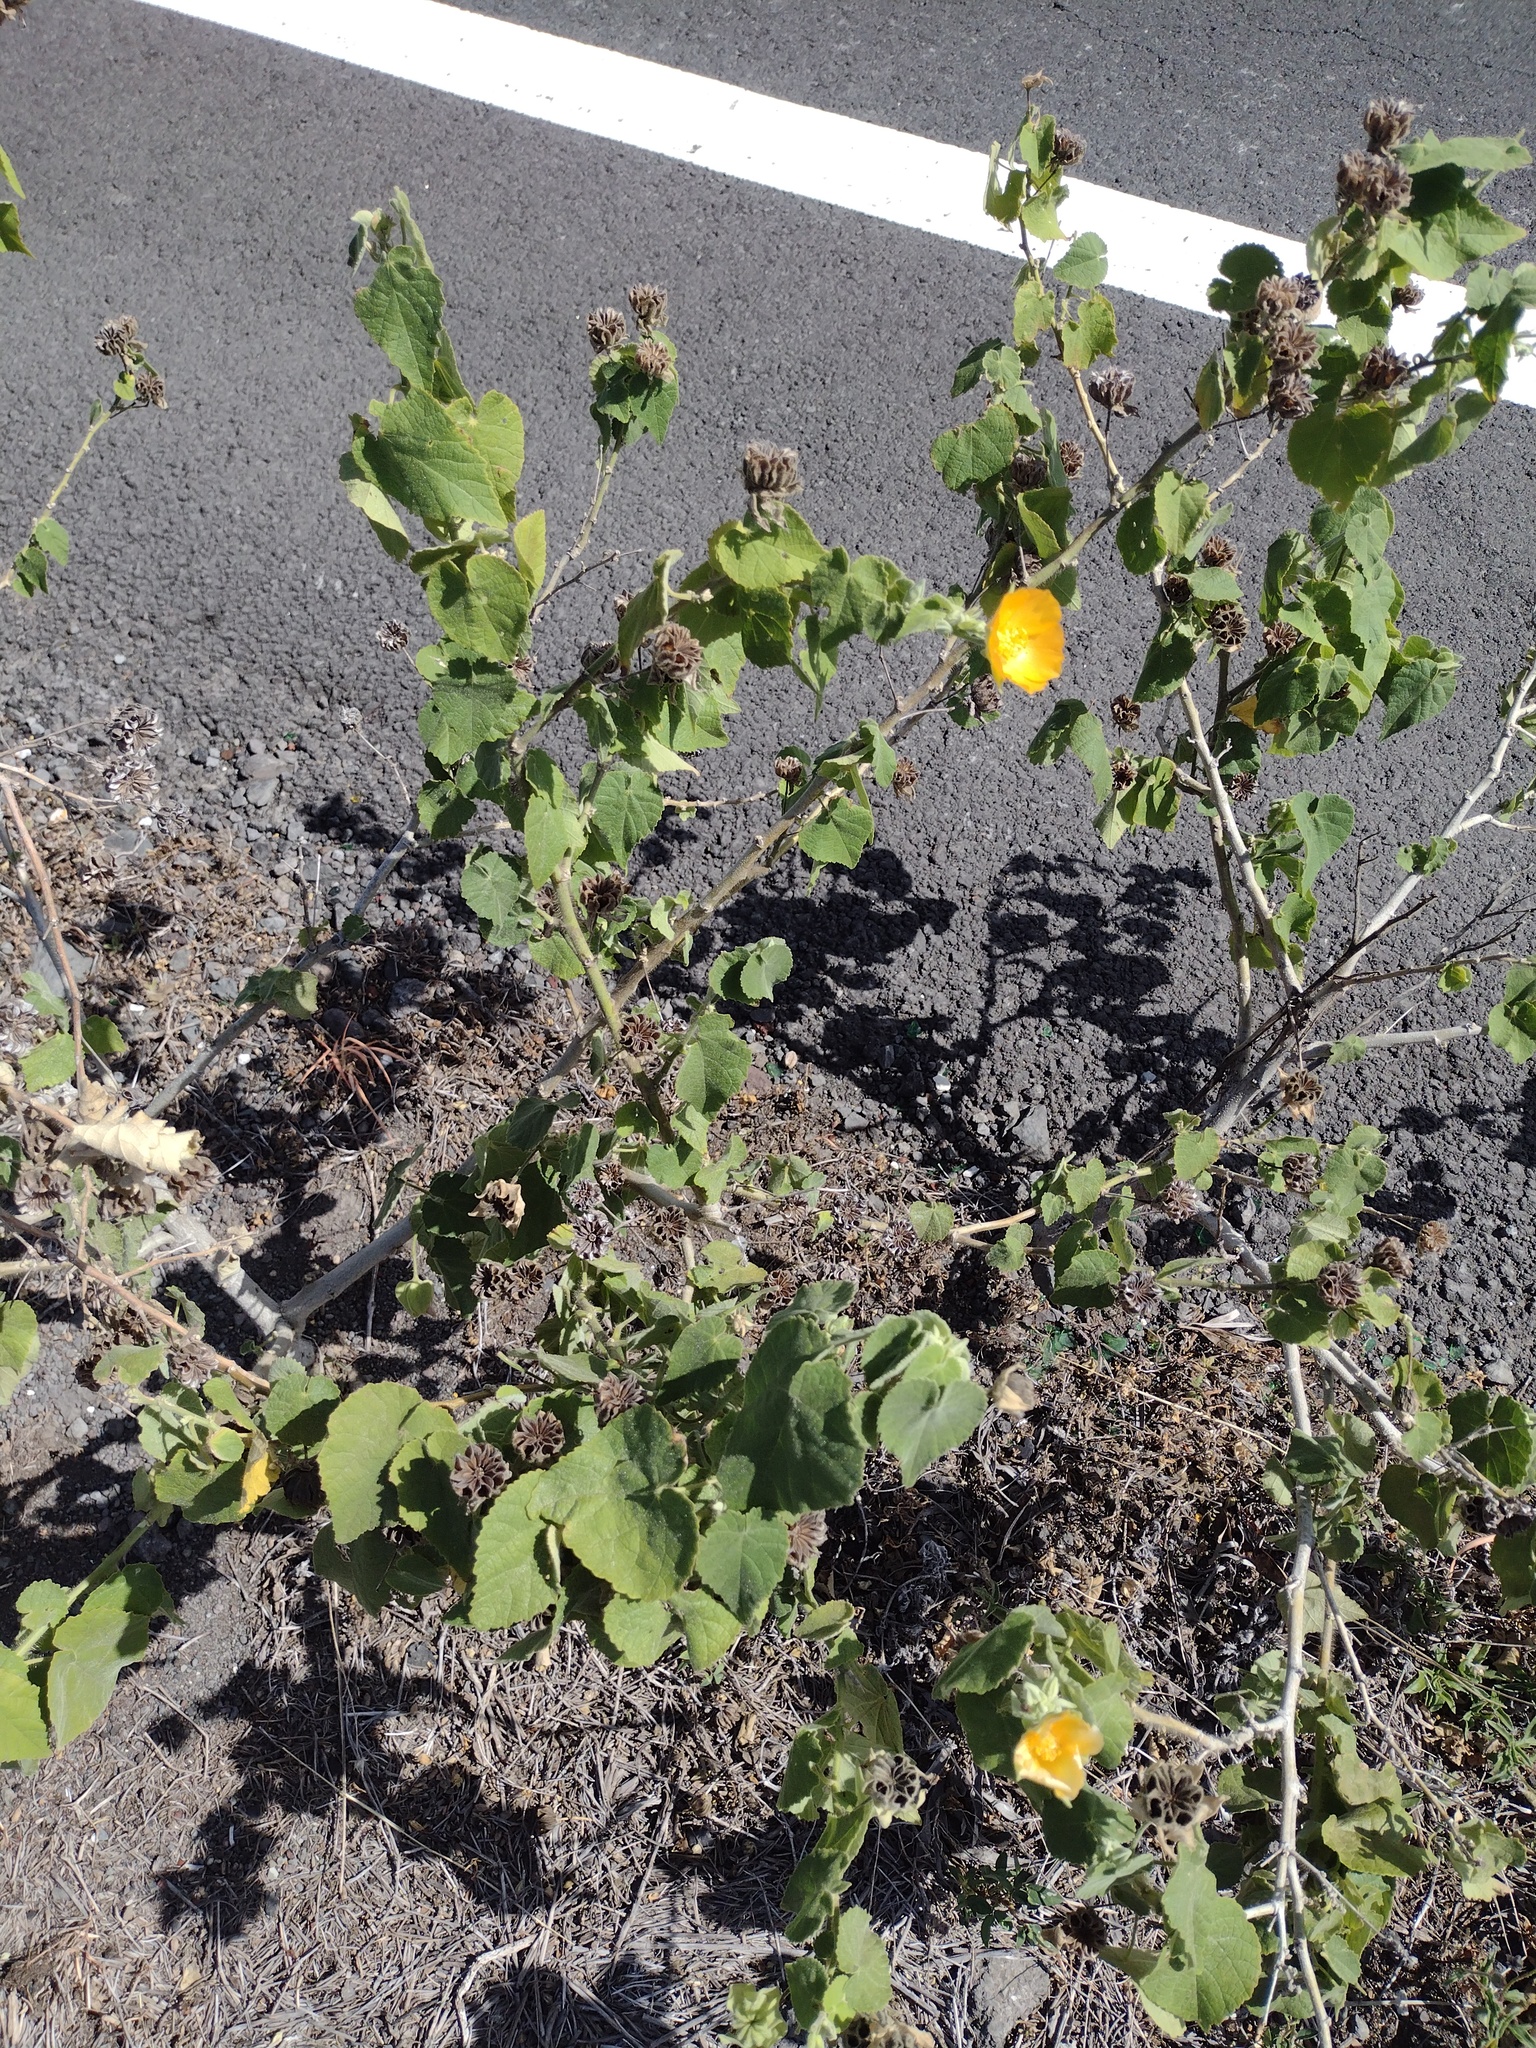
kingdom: Plantae
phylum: Tracheophyta
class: Magnoliopsida
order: Malvales
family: Malvaceae
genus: Abutilon
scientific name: Abutilon grandifolium
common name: Hairy abutilon
